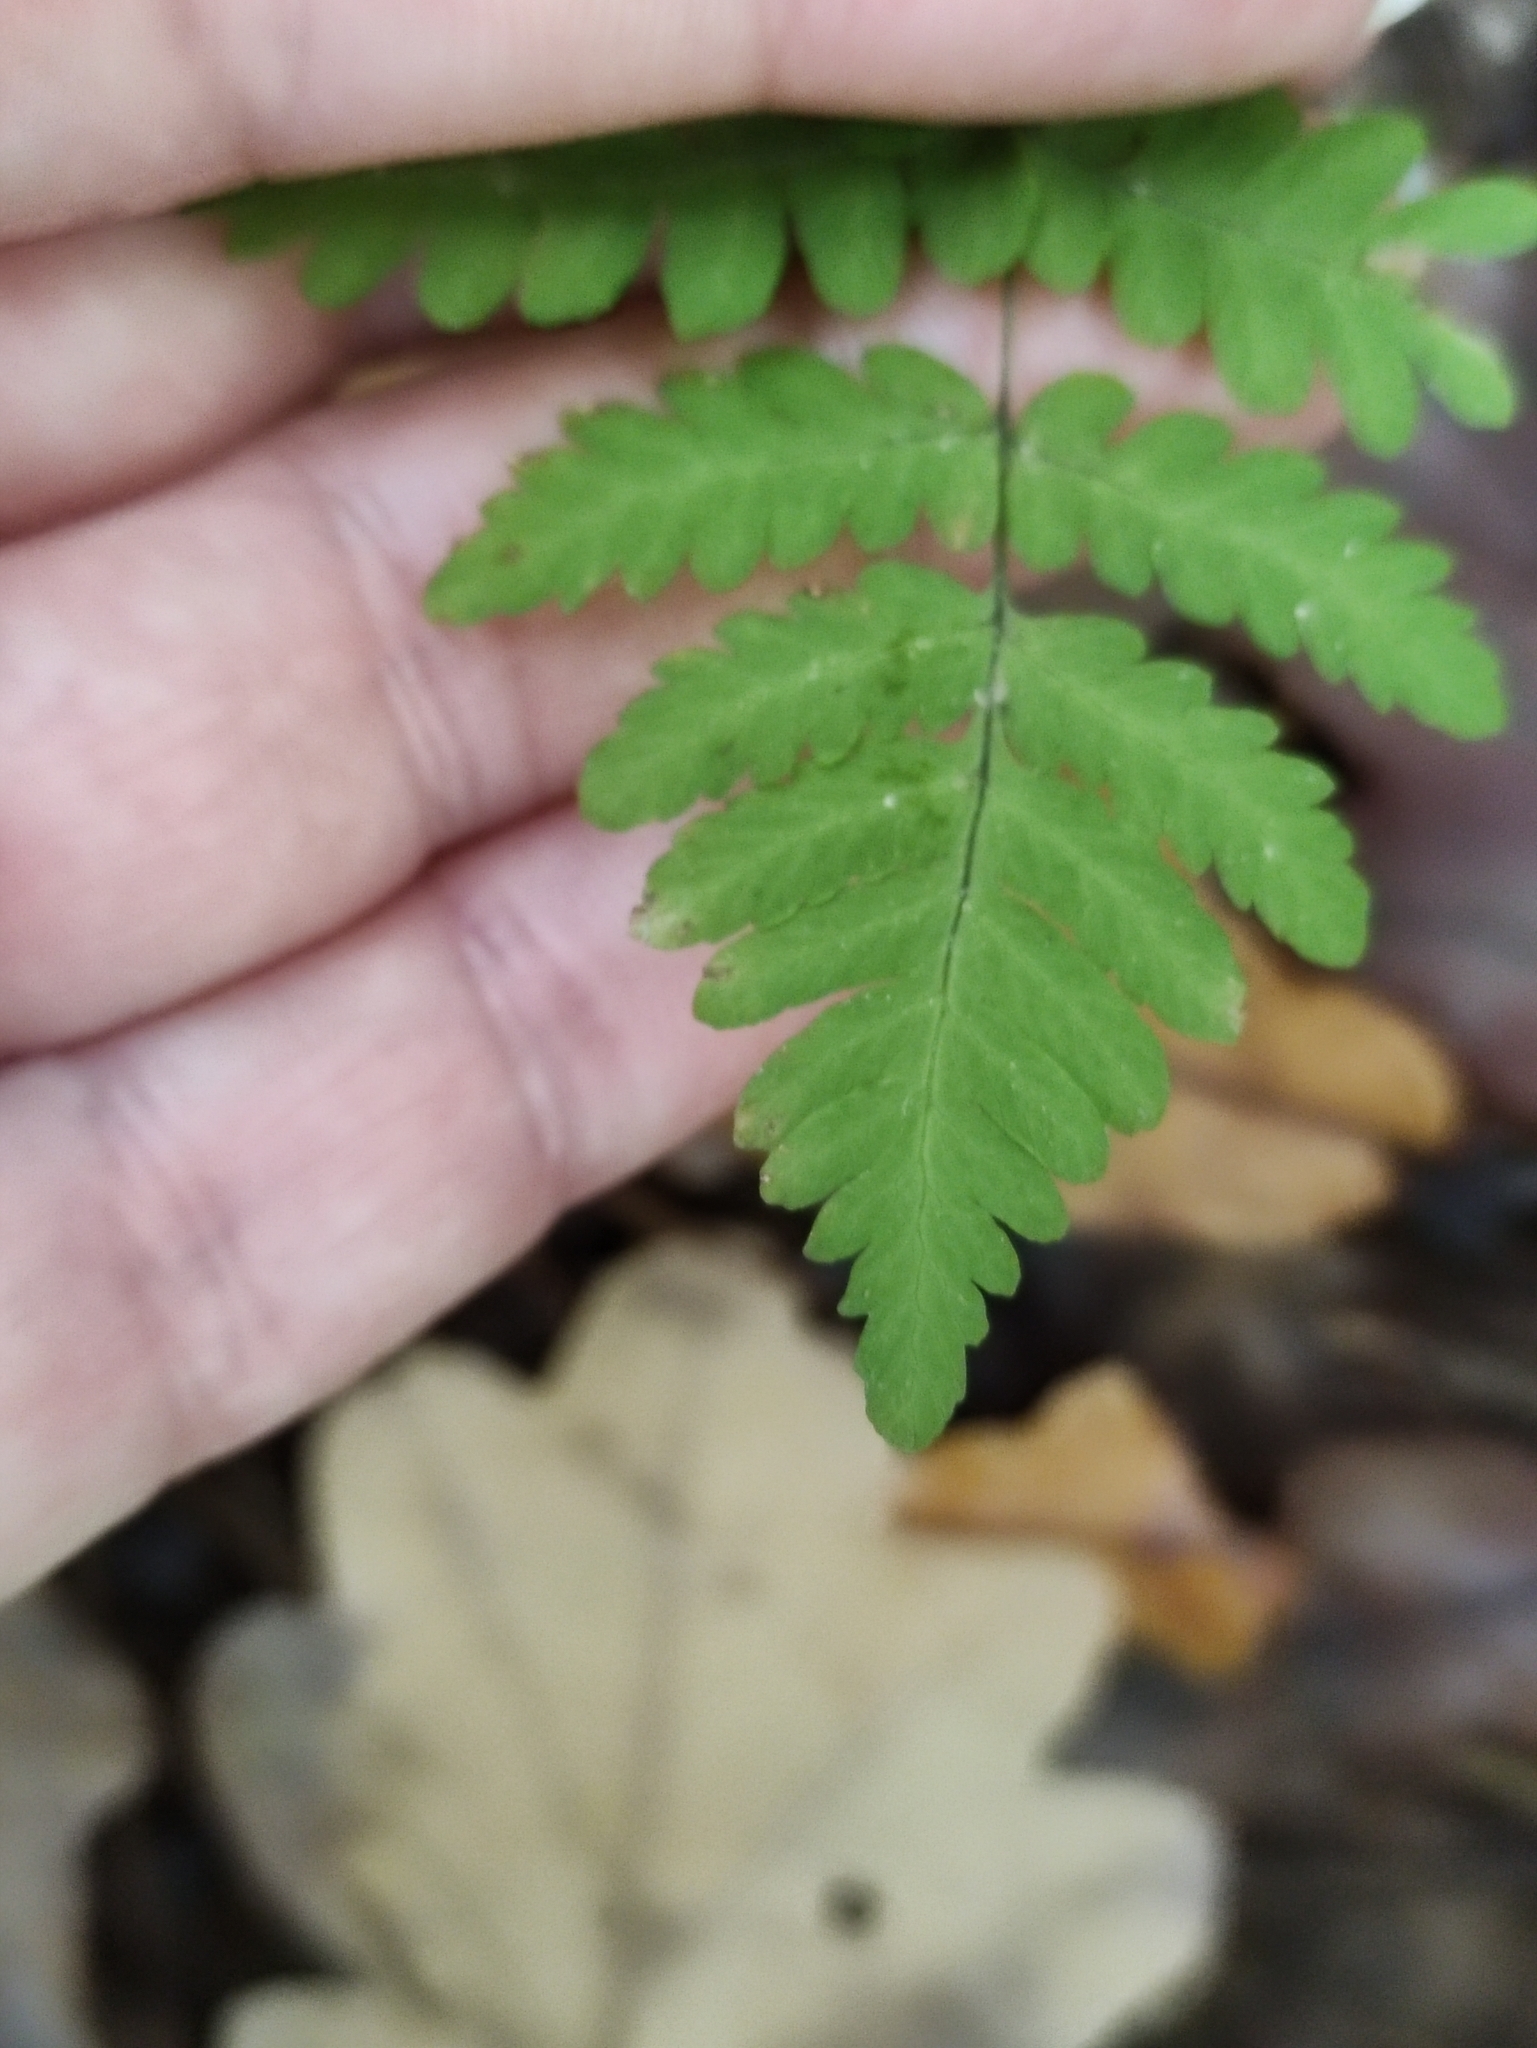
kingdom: Plantae
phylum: Tracheophyta
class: Polypodiopsida
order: Polypodiales
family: Cystopteridaceae
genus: Gymnocarpium
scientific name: Gymnocarpium dryopteris
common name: Oak fern
